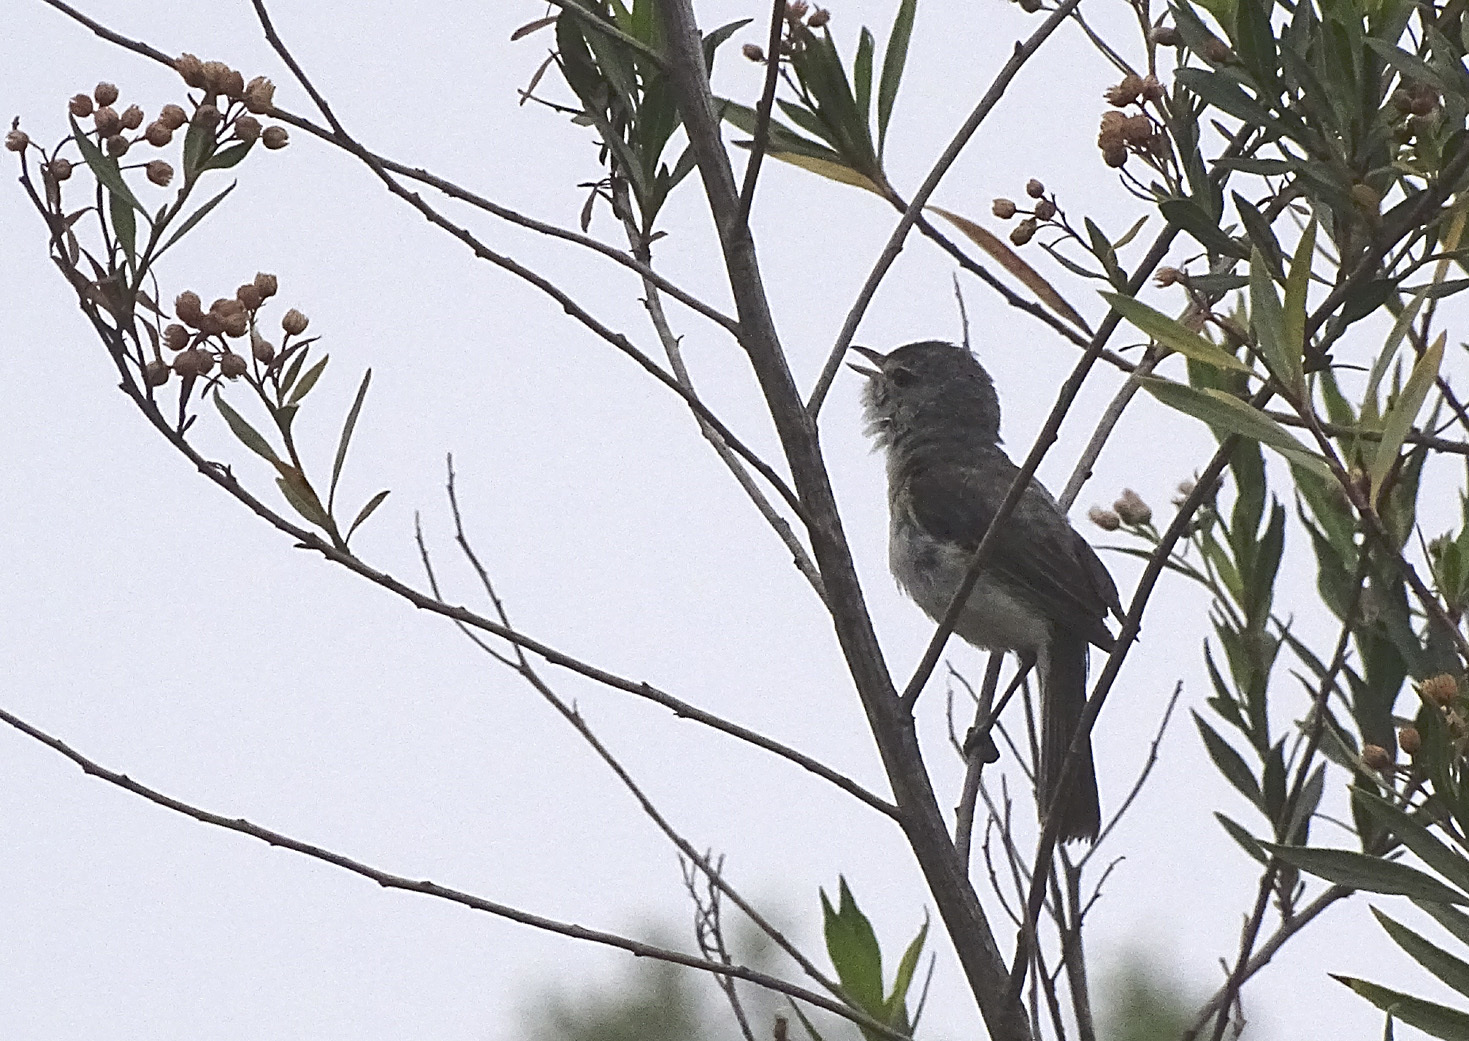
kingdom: Animalia
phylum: Chordata
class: Aves
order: Passeriformes
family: Vireonidae
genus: Vireo
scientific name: Vireo bellii
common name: Bell's vireo
